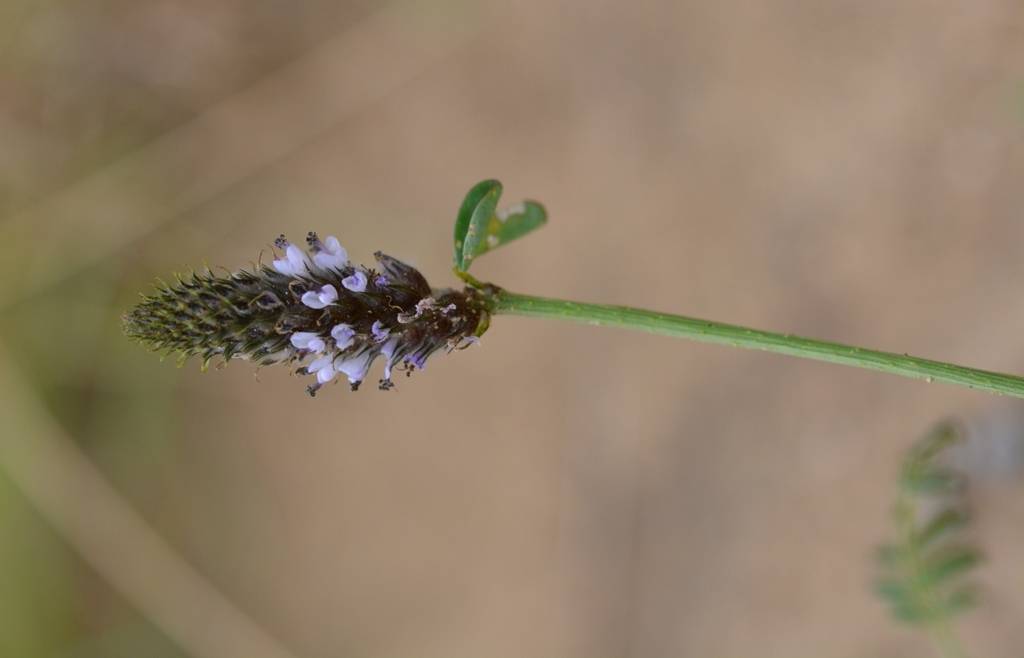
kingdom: Plantae
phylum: Tracheophyta
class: Magnoliopsida
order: Fabales
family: Fabaceae
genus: Dalea
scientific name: Dalea leporina
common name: Foxtail dalea
